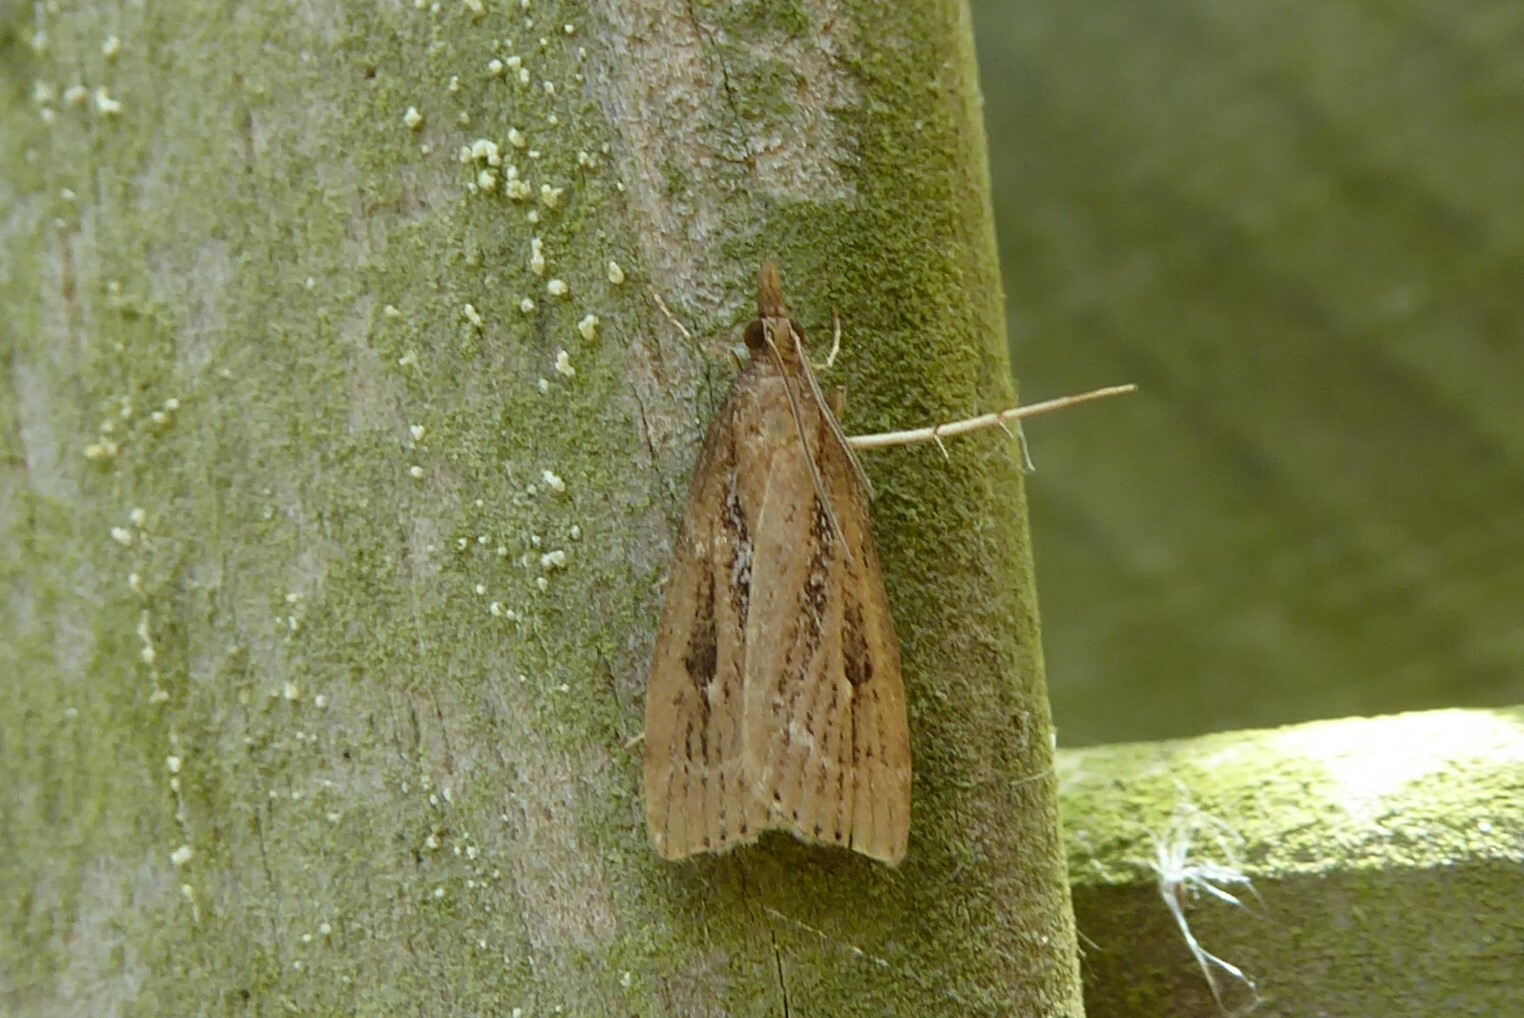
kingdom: Animalia
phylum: Arthropoda
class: Insecta
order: Lepidoptera
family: Crambidae
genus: Eudonia
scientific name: Eudonia octophora
